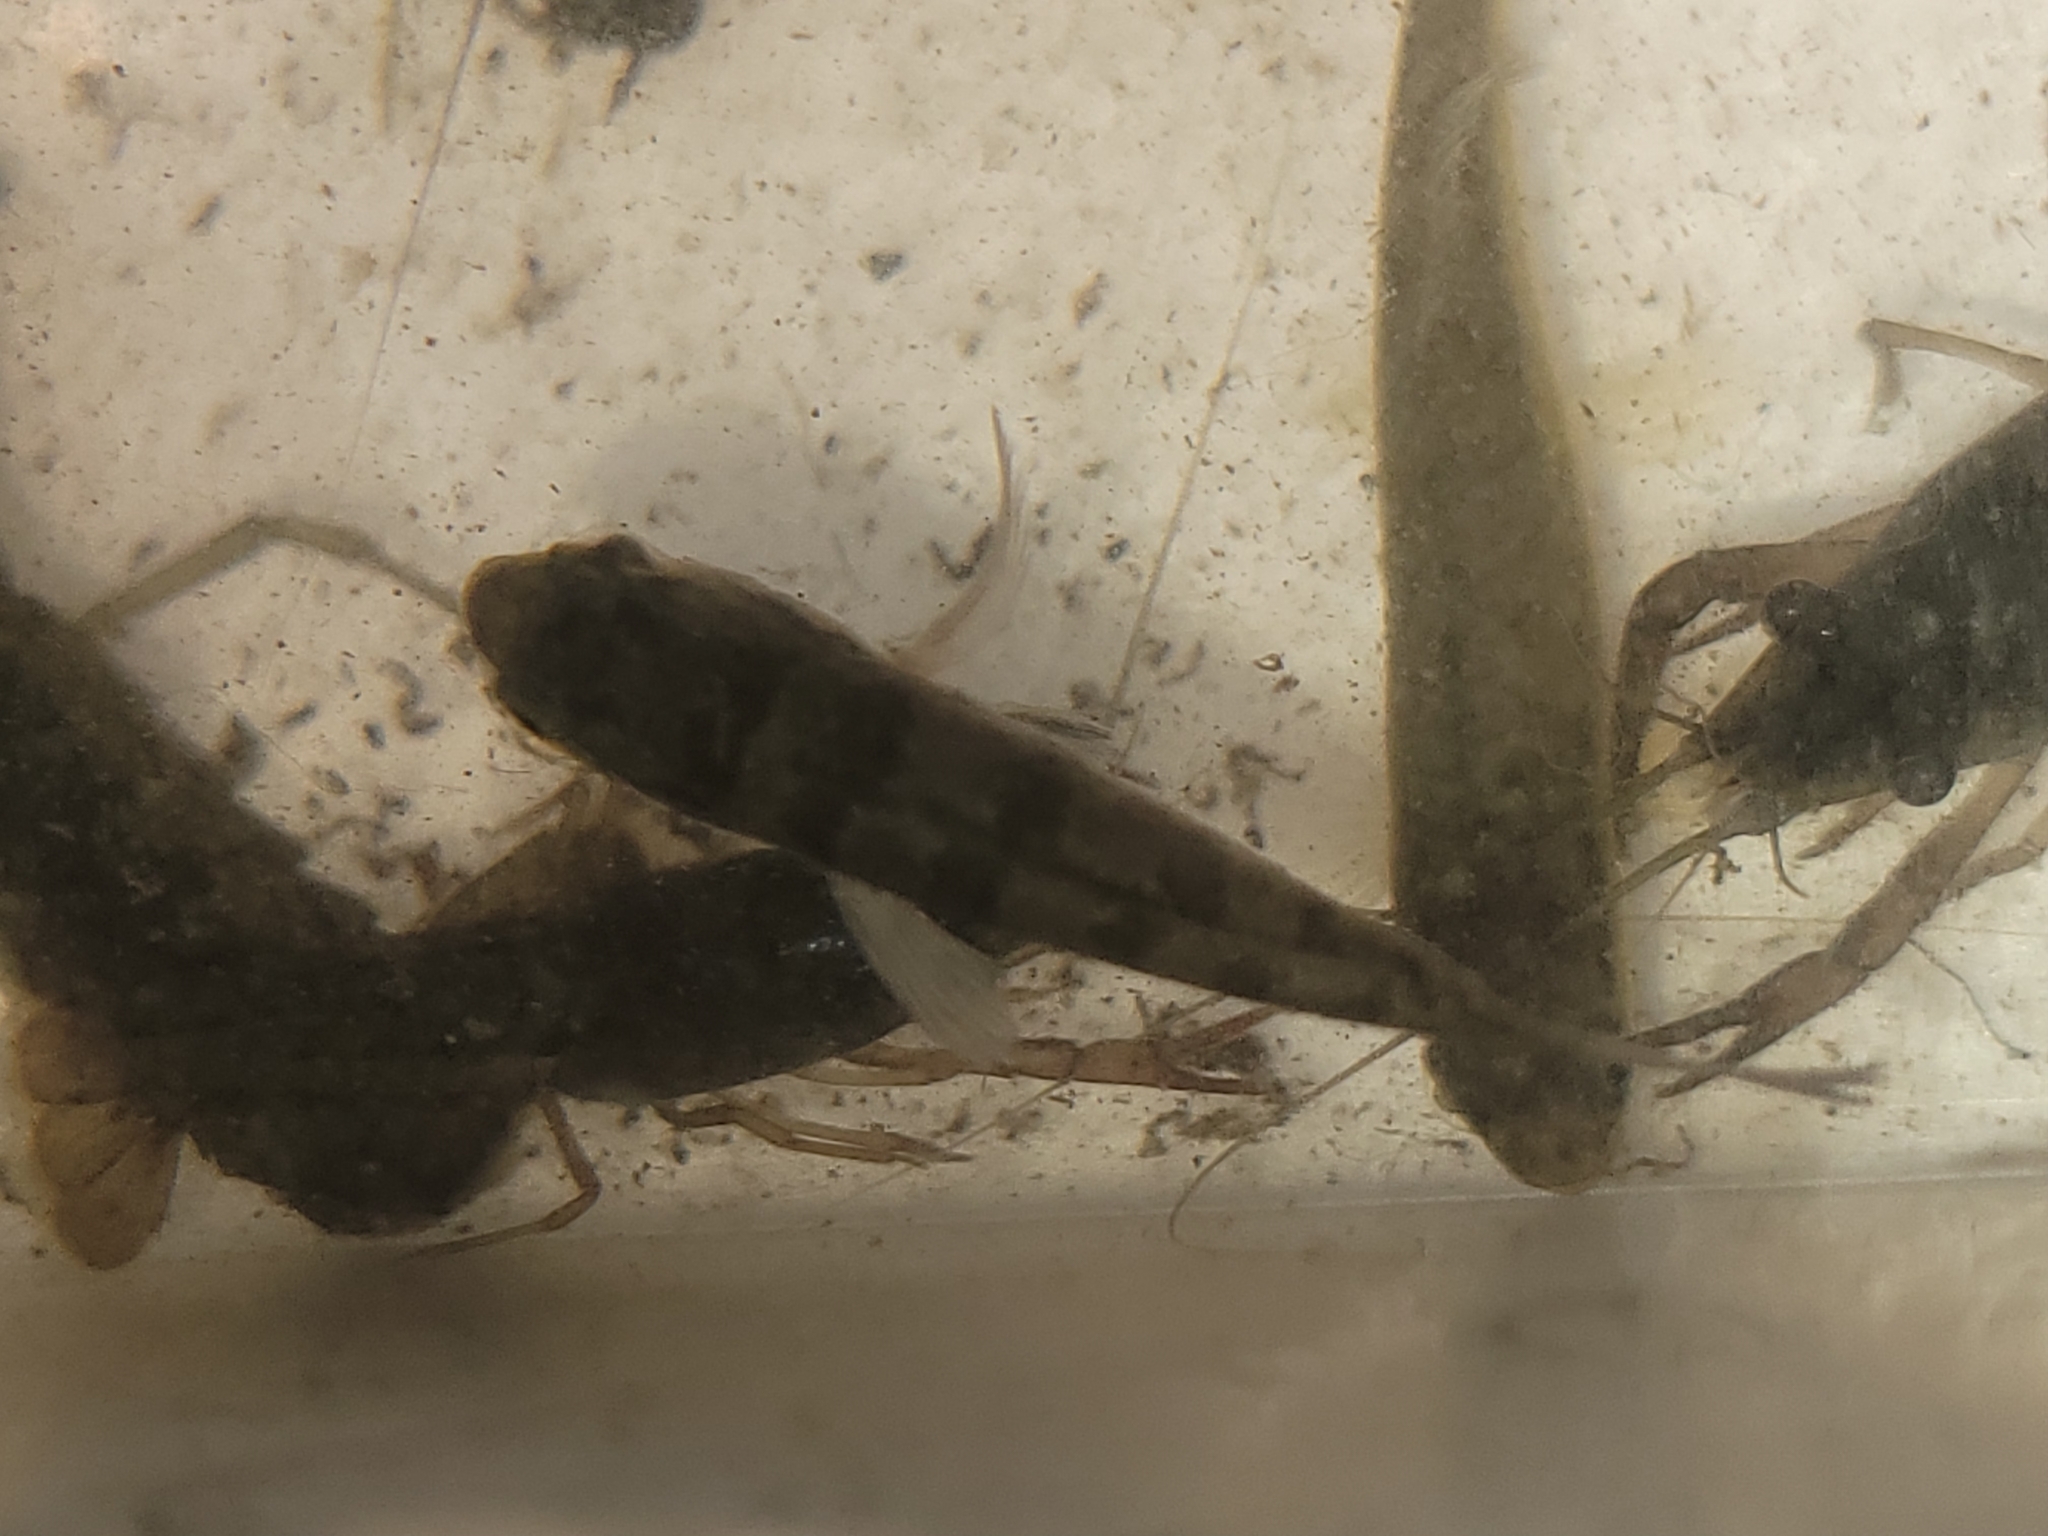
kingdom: Animalia
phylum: Chordata
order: Perciformes
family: Centrarchidae
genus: Enneacanthus
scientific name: Enneacanthus obesus
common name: Banded sunfish
